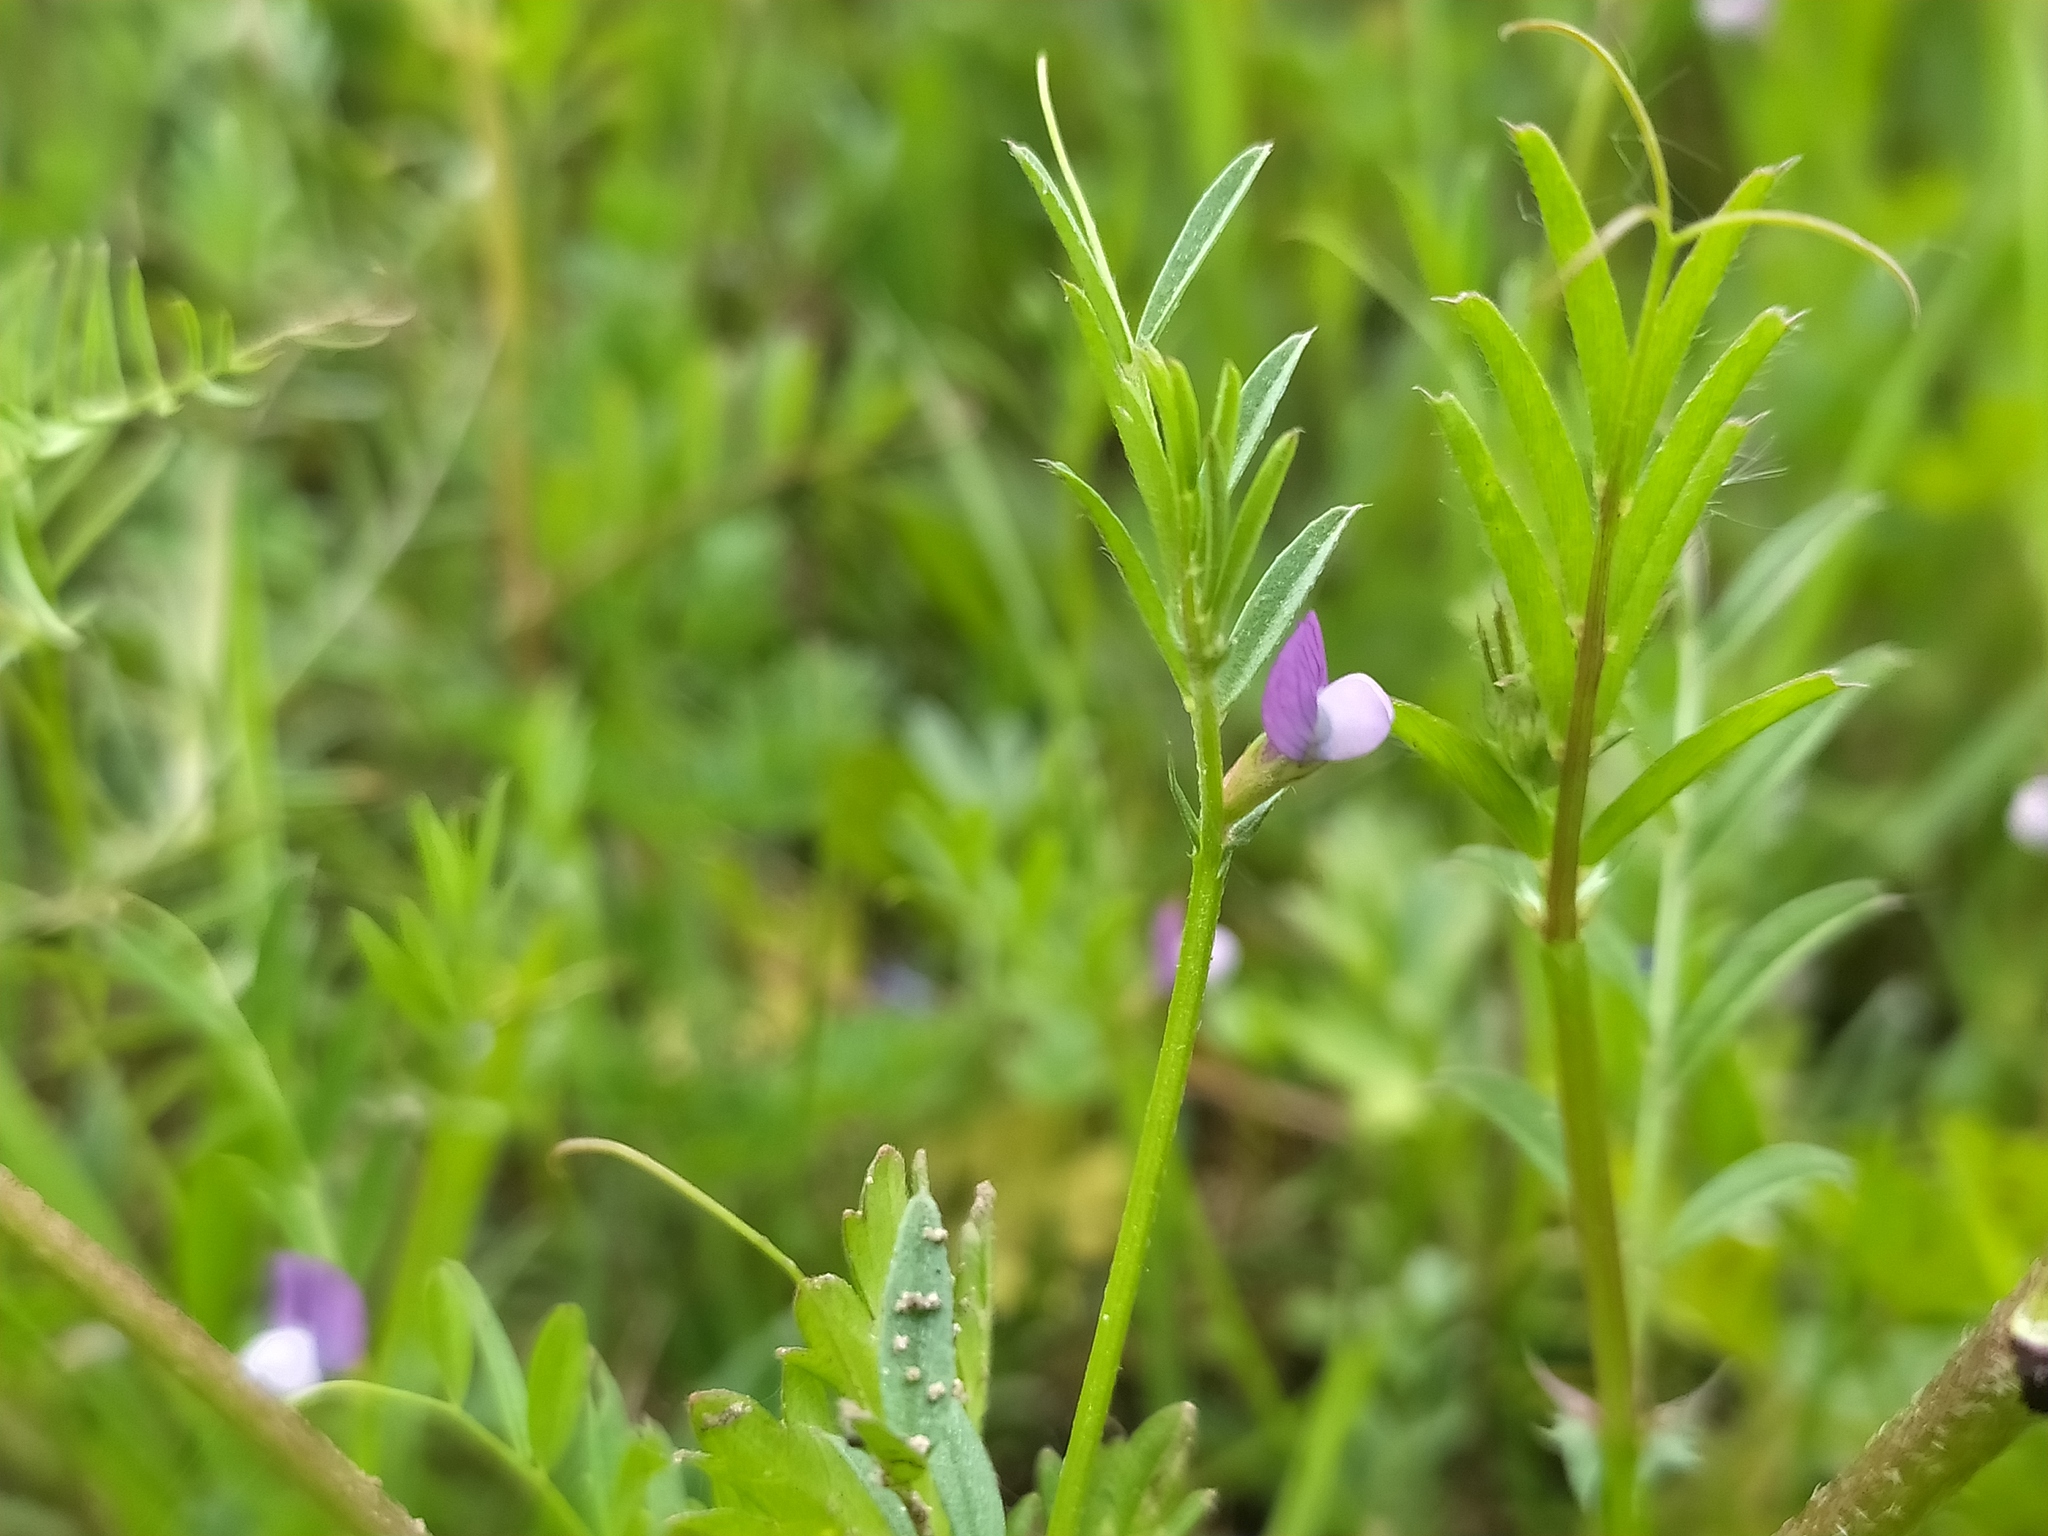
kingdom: Plantae
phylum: Tracheophyta
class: Magnoliopsida
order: Fabales
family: Fabaceae
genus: Vicia
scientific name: Vicia lathyroides
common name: Spring vetch
